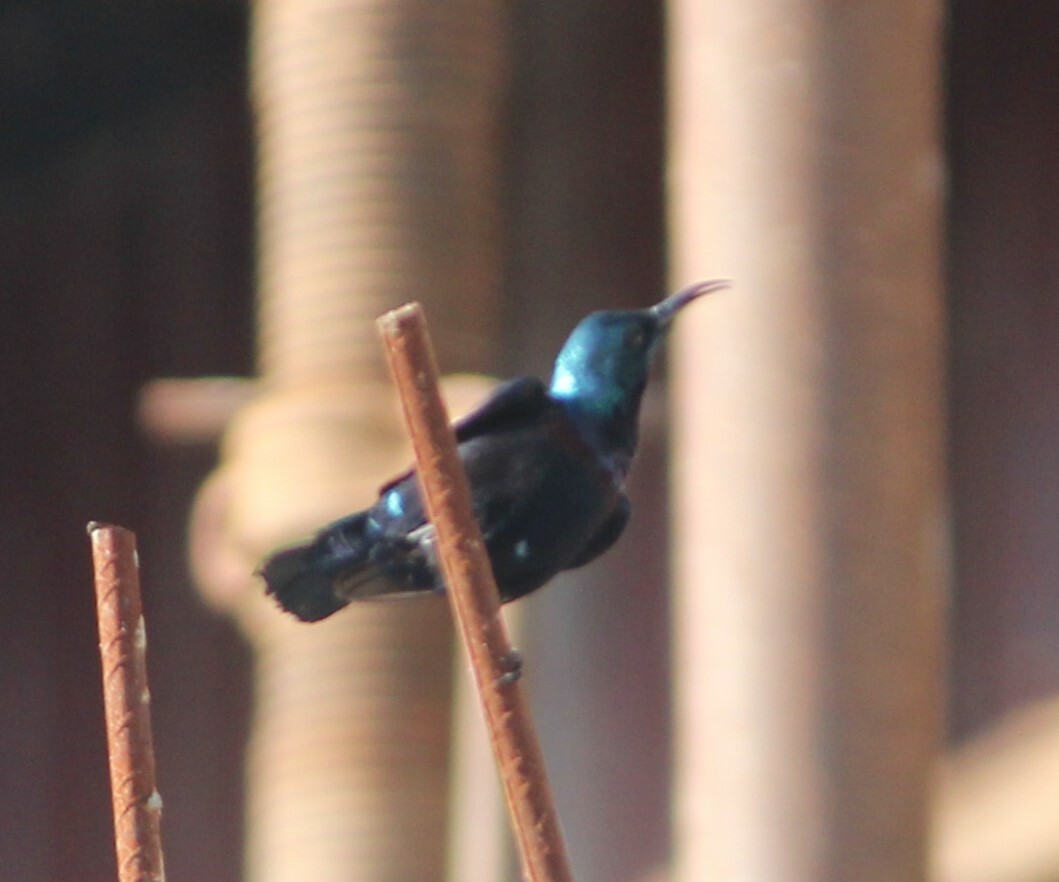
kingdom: Animalia
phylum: Chordata
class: Aves
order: Passeriformes
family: Nectariniidae
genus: Cinnyris
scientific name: Cinnyris asiaticus
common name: Purple sunbird
